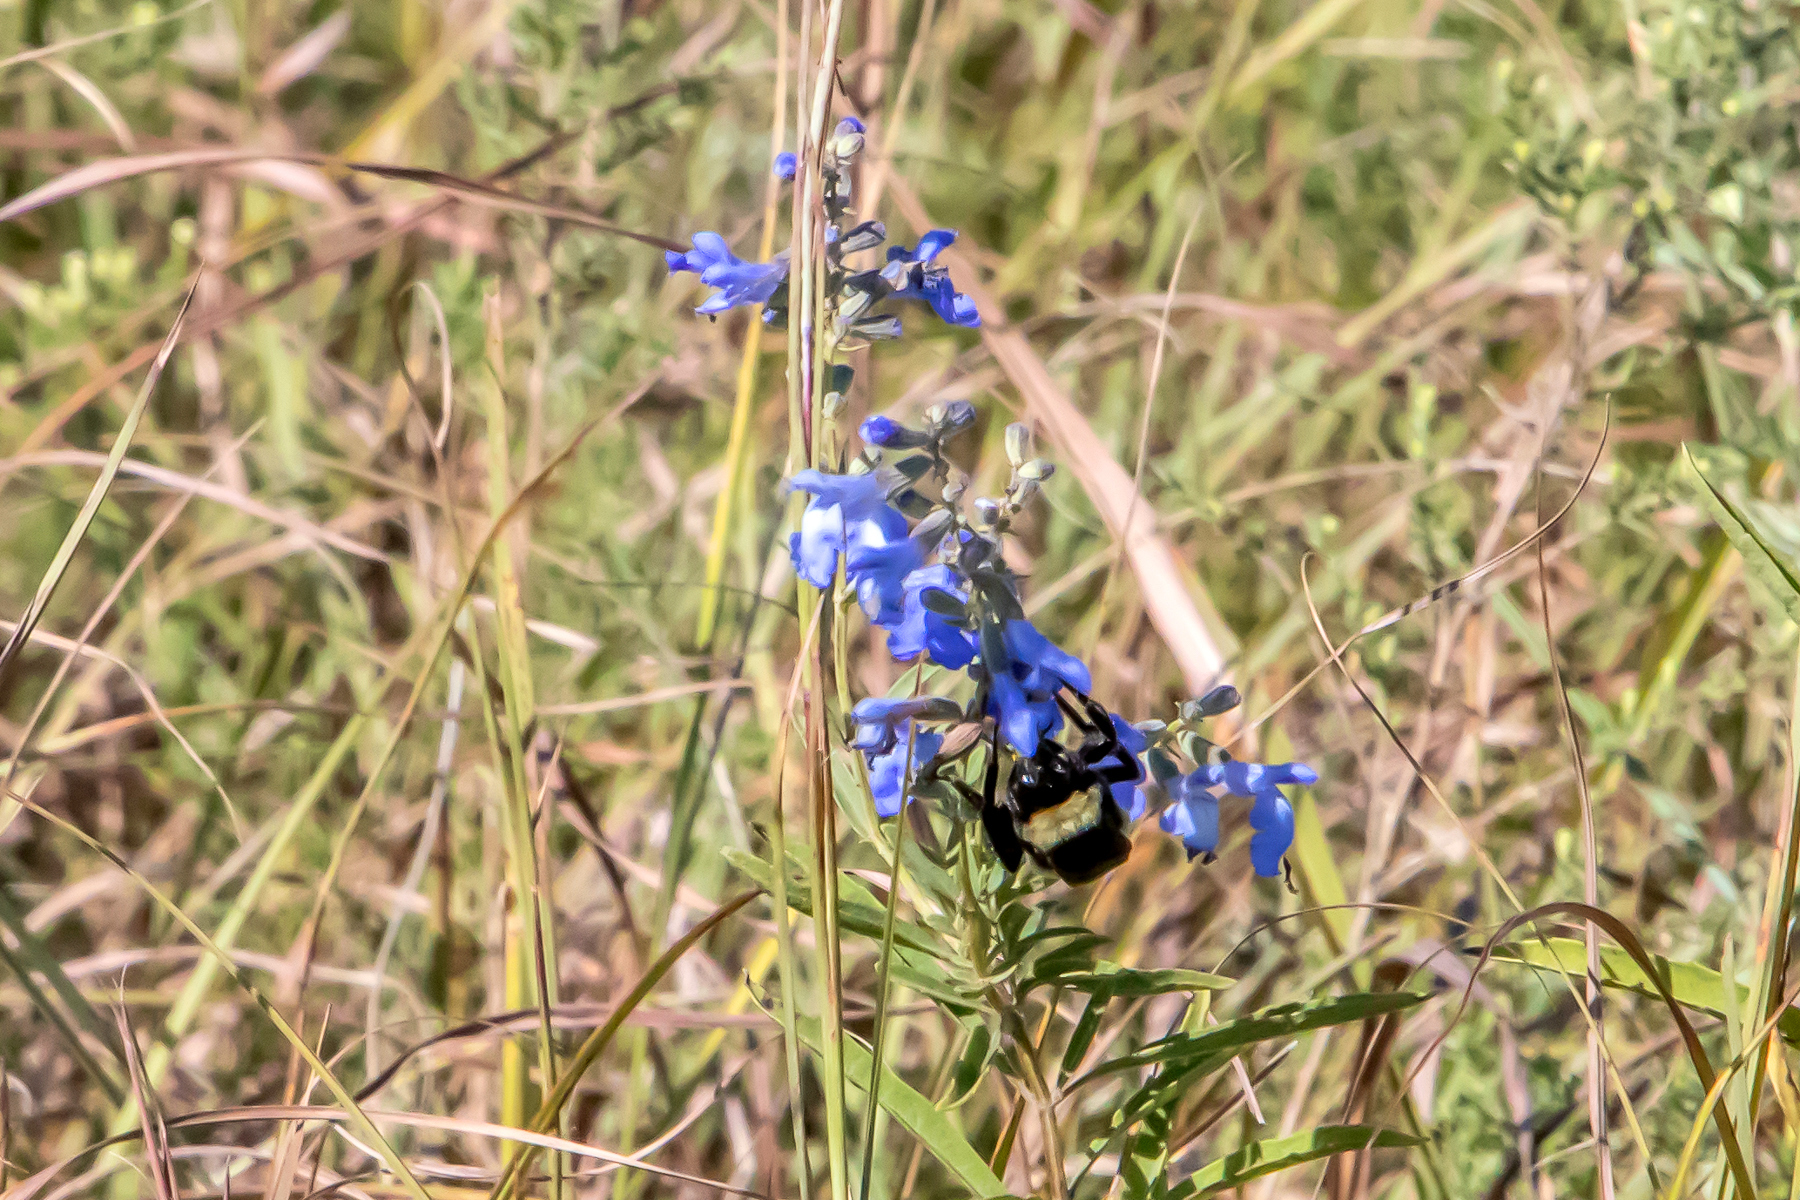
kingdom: Animalia
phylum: Arthropoda
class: Insecta
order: Hymenoptera
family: Apidae
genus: Bombus
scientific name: Bombus pensylvanicus
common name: Bumble bee
